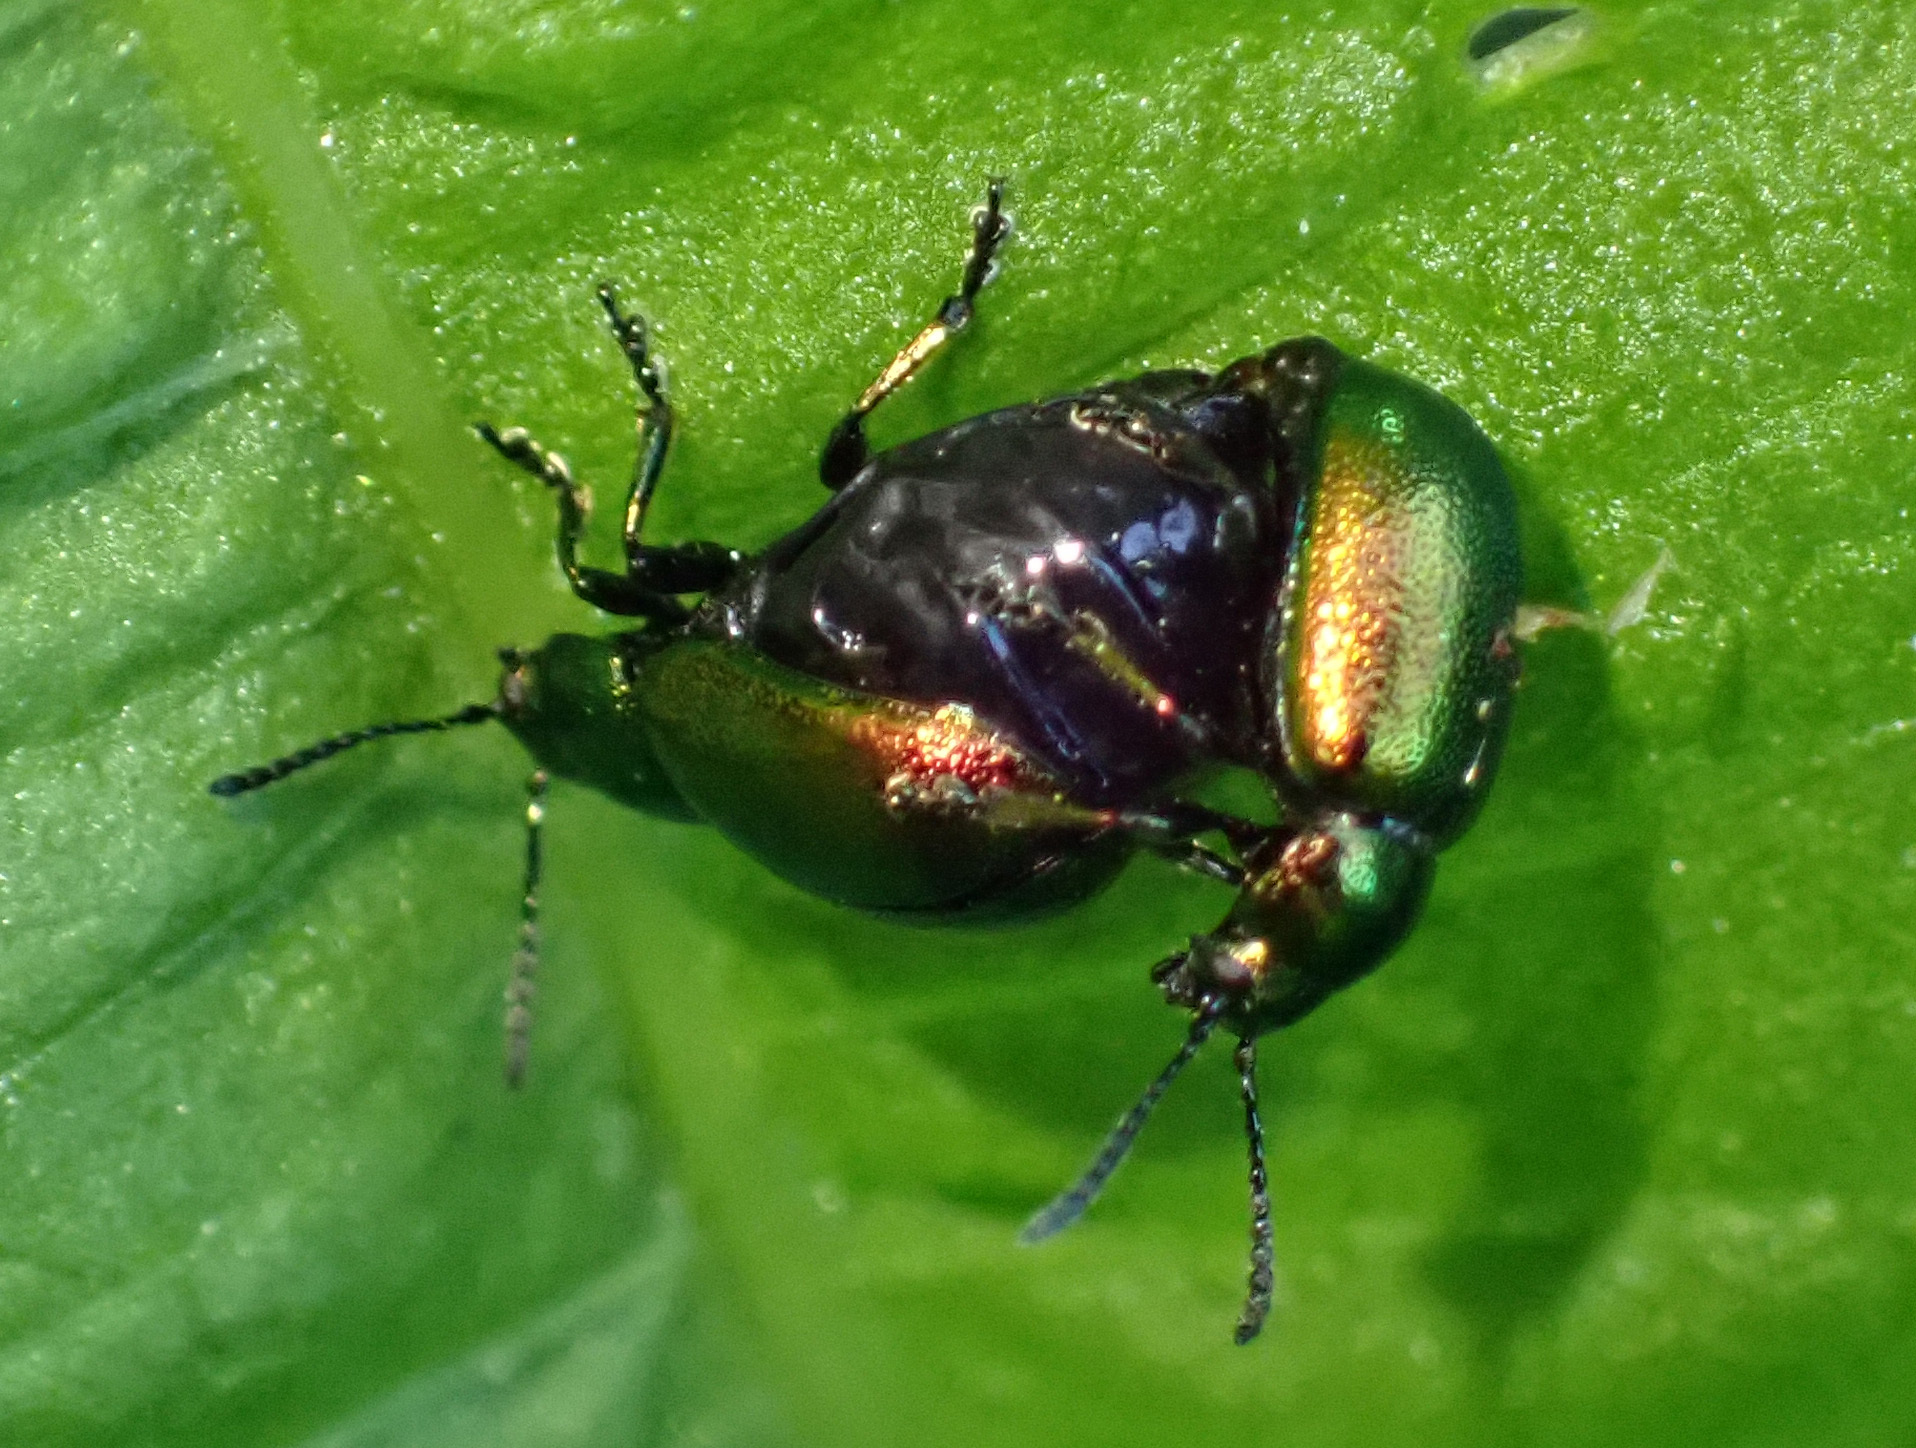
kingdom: Animalia
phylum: Arthropoda
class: Insecta
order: Coleoptera
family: Chrysomelidae
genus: Gastrophysa
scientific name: Gastrophysa viridula
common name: Green dock beetle
